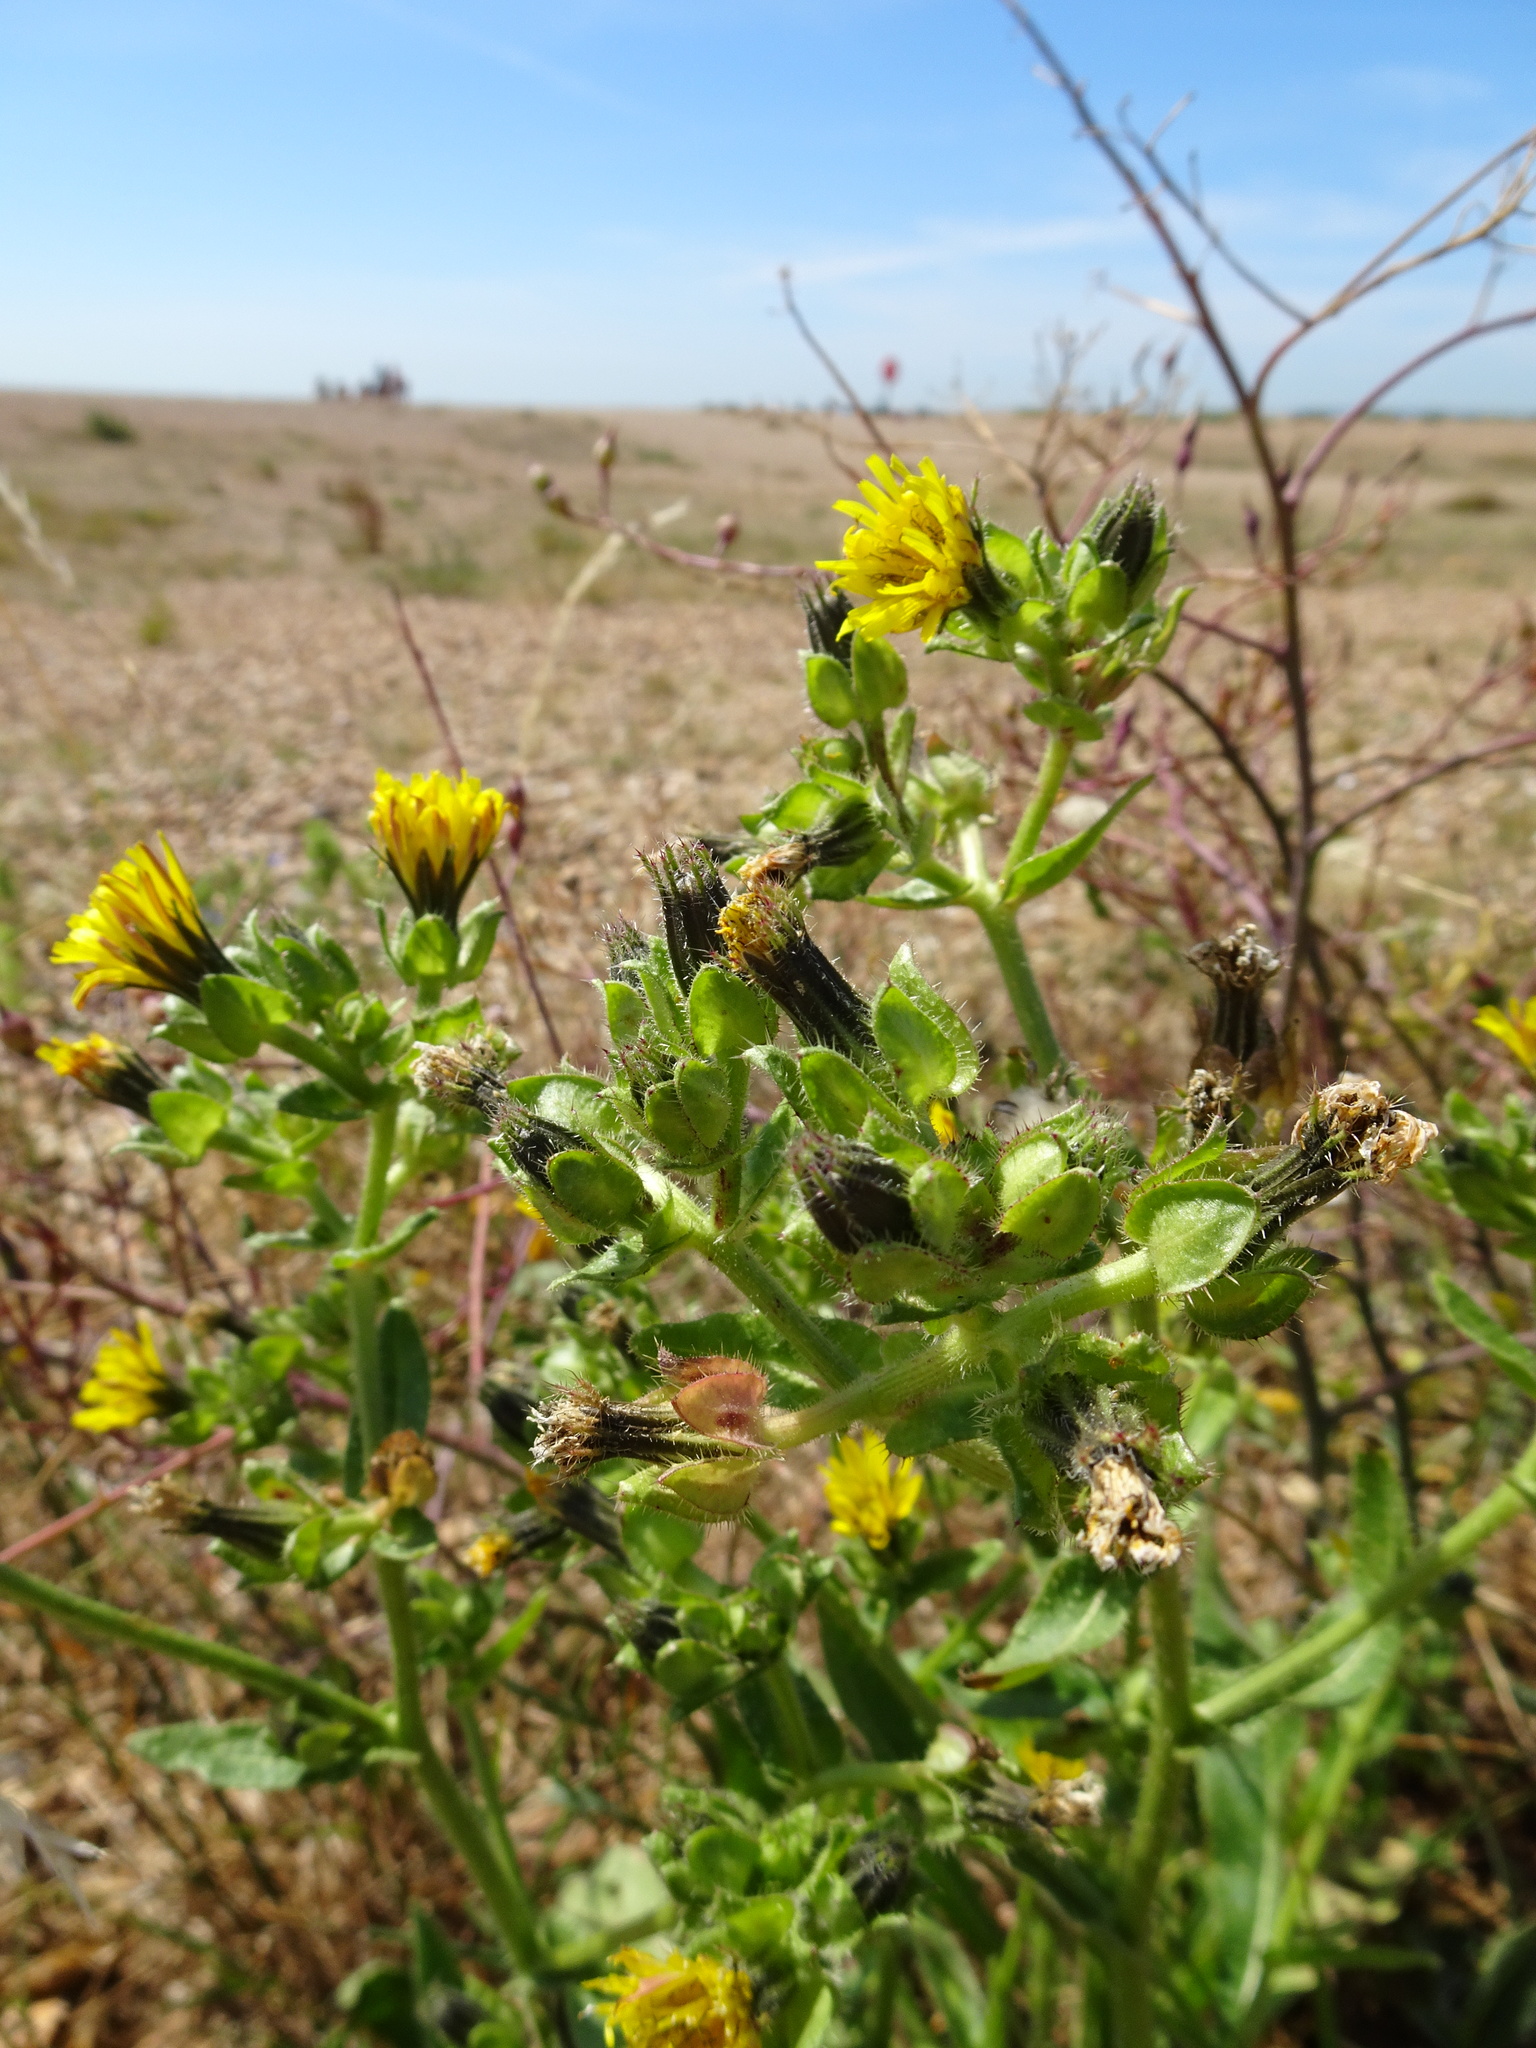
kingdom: Plantae
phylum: Tracheophyta
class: Magnoliopsida
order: Asterales
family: Asteraceae
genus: Helminthotheca
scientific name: Helminthotheca echioides
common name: Ox-tongue
